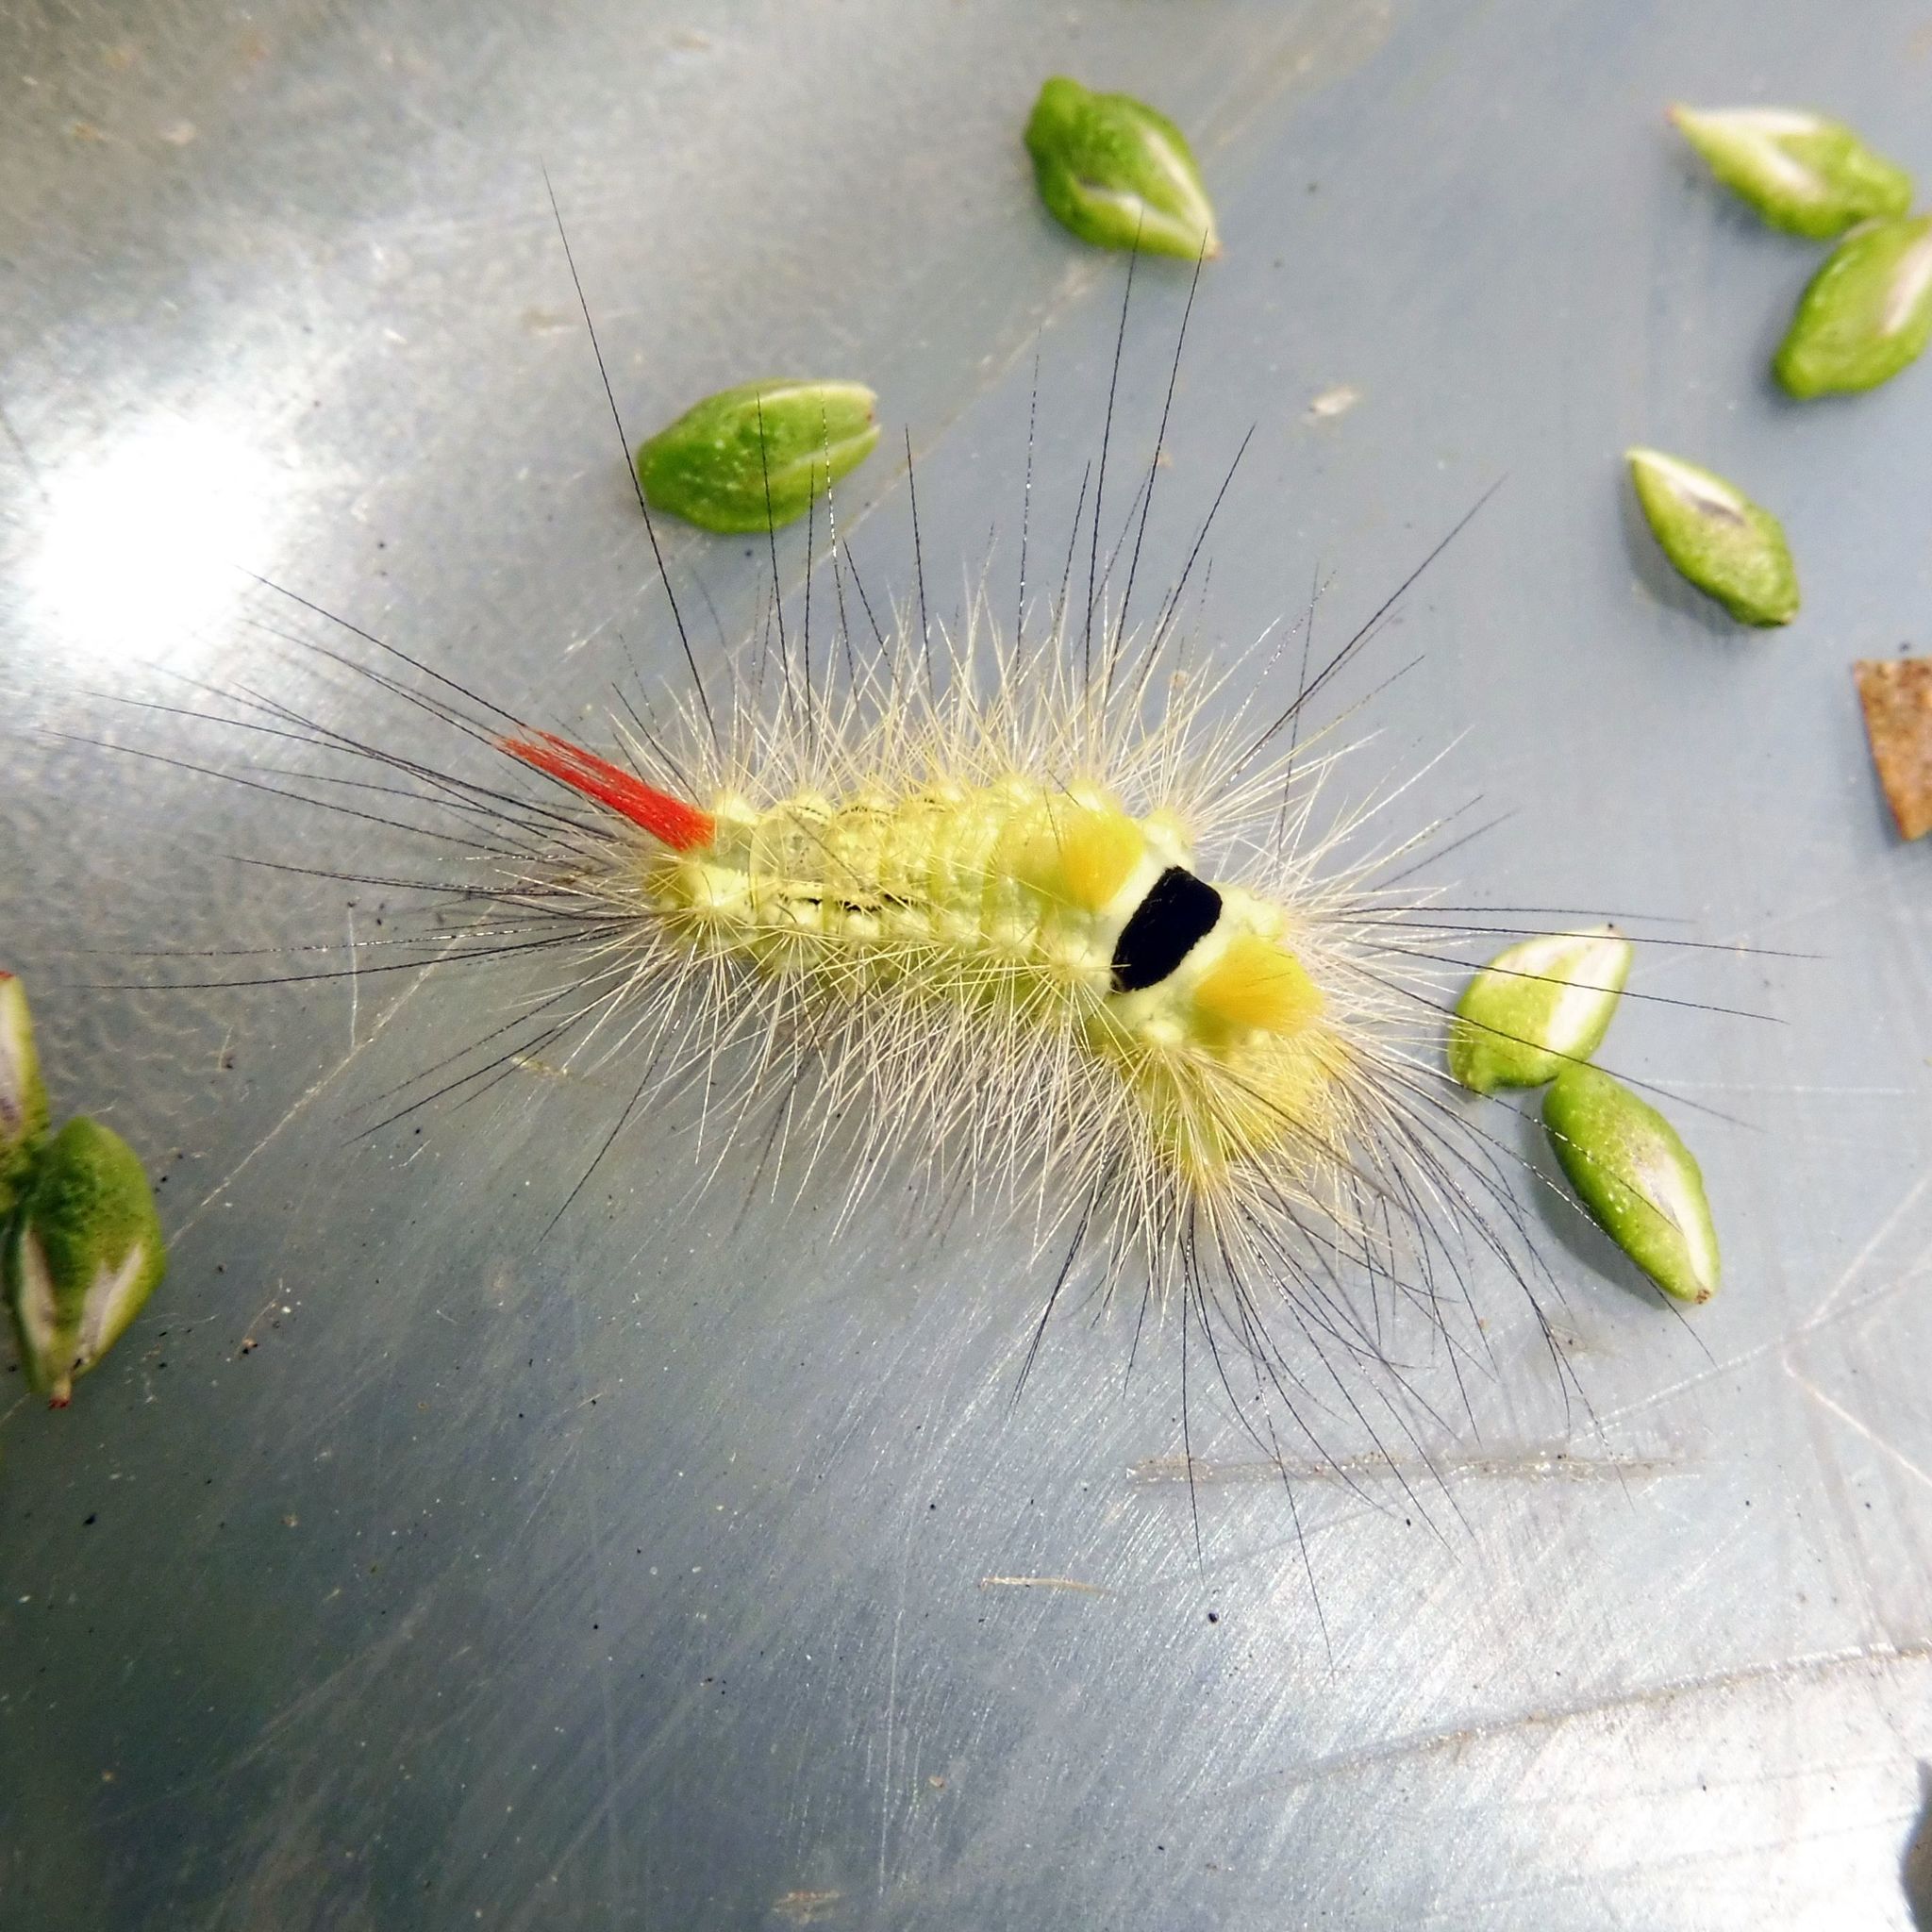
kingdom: Animalia
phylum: Arthropoda
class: Insecta
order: Lepidoptera
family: Erebidae
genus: Calliteara
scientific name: Calliteara pudibunda
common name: Pale tussock
